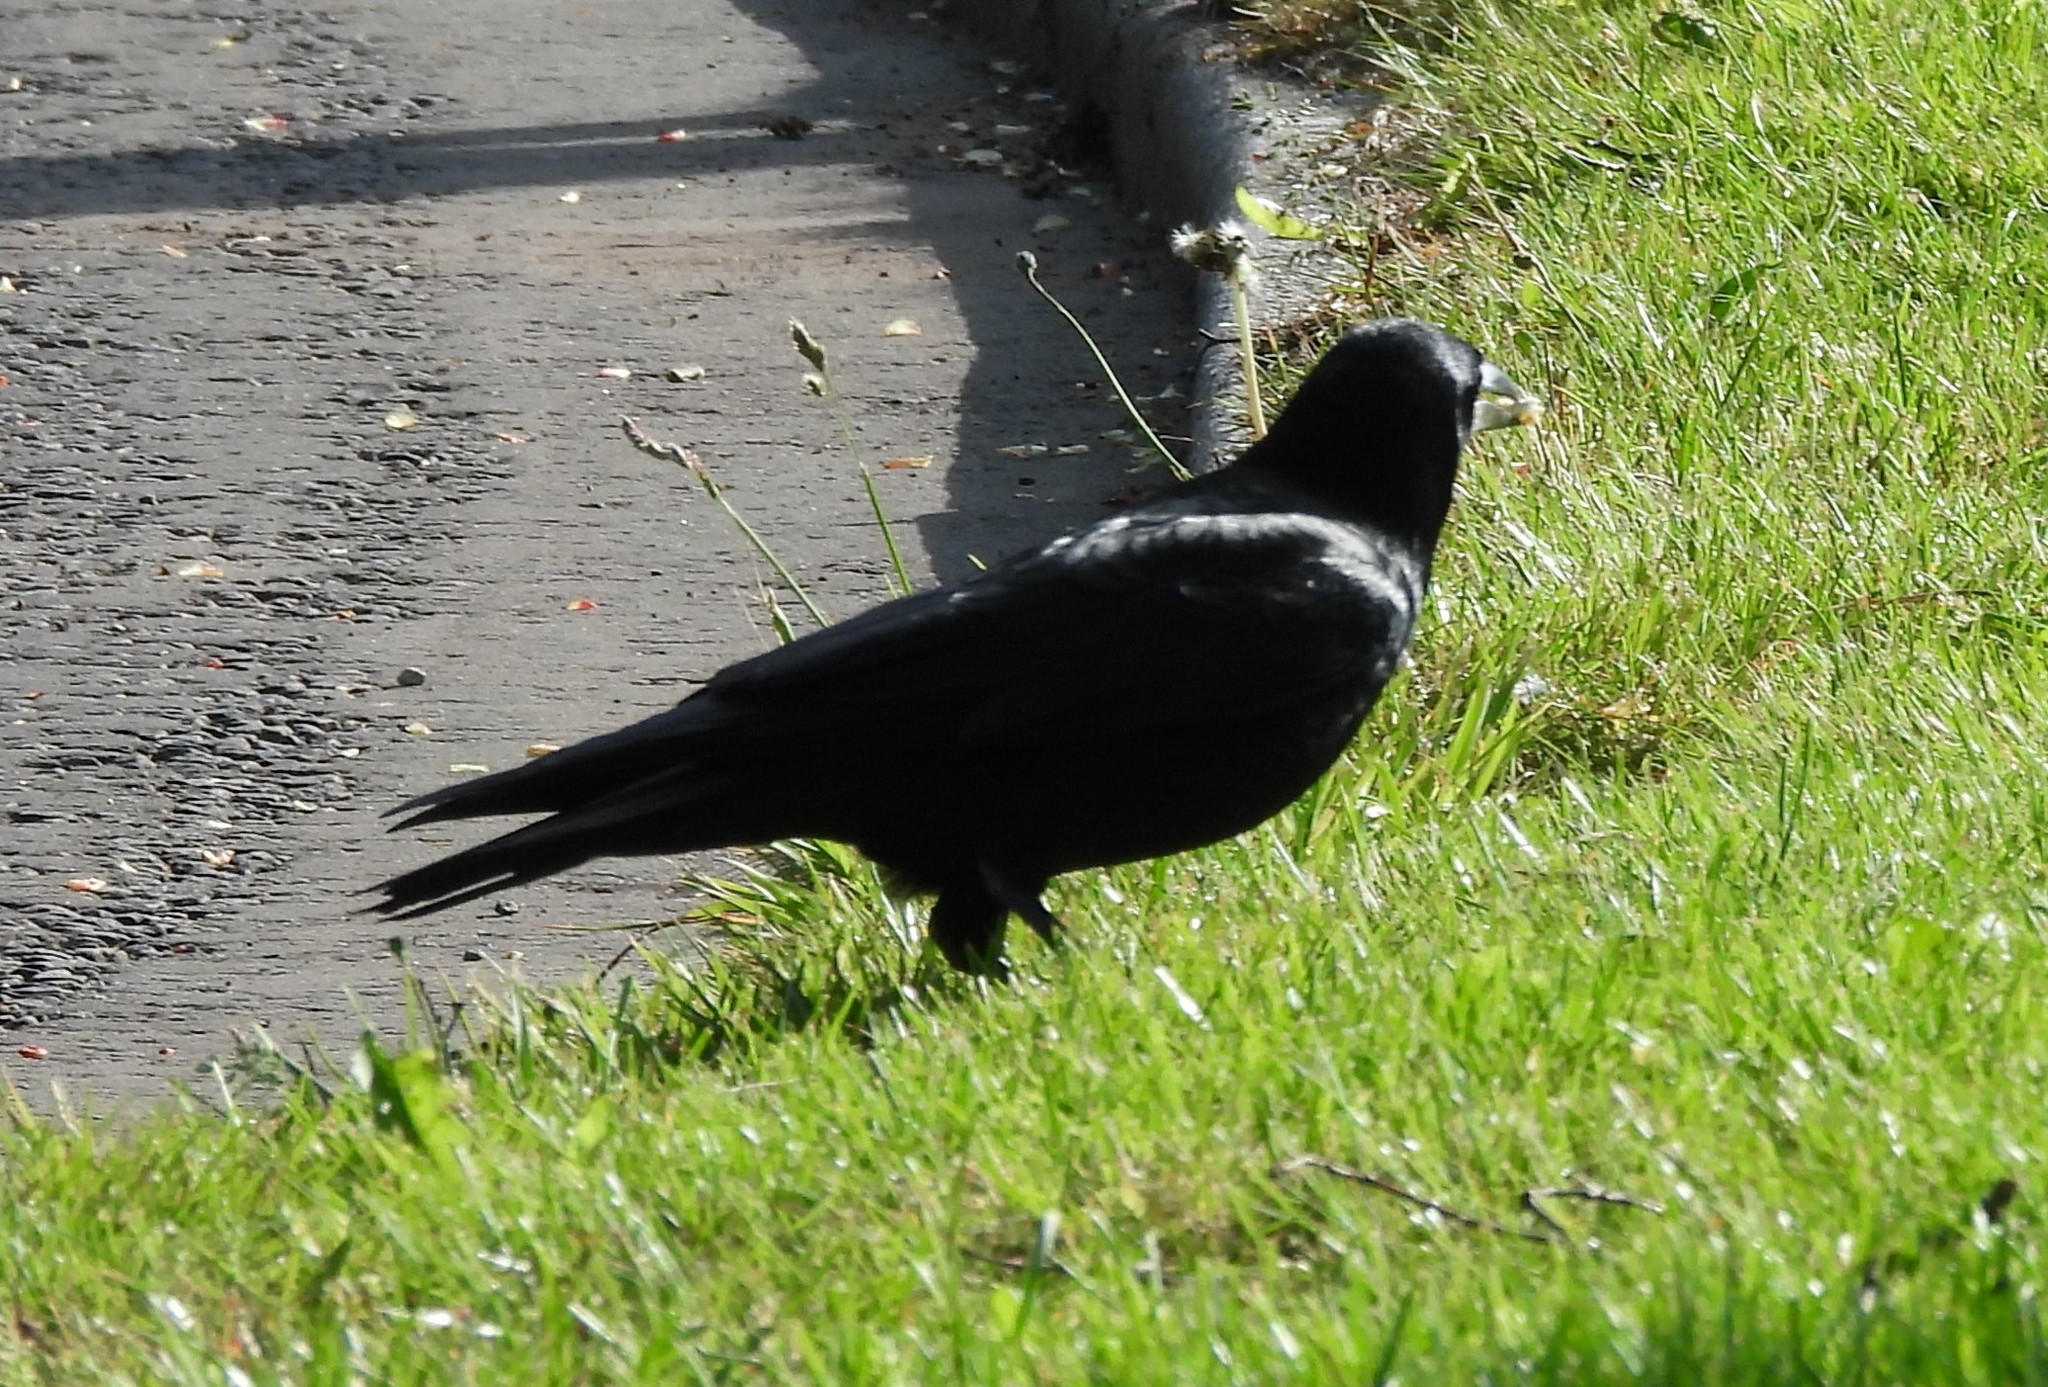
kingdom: Animalia
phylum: Chordata
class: Aves
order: Passeriformes
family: Corvidae
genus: Corvus
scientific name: Corvus frugilegus
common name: Rook
